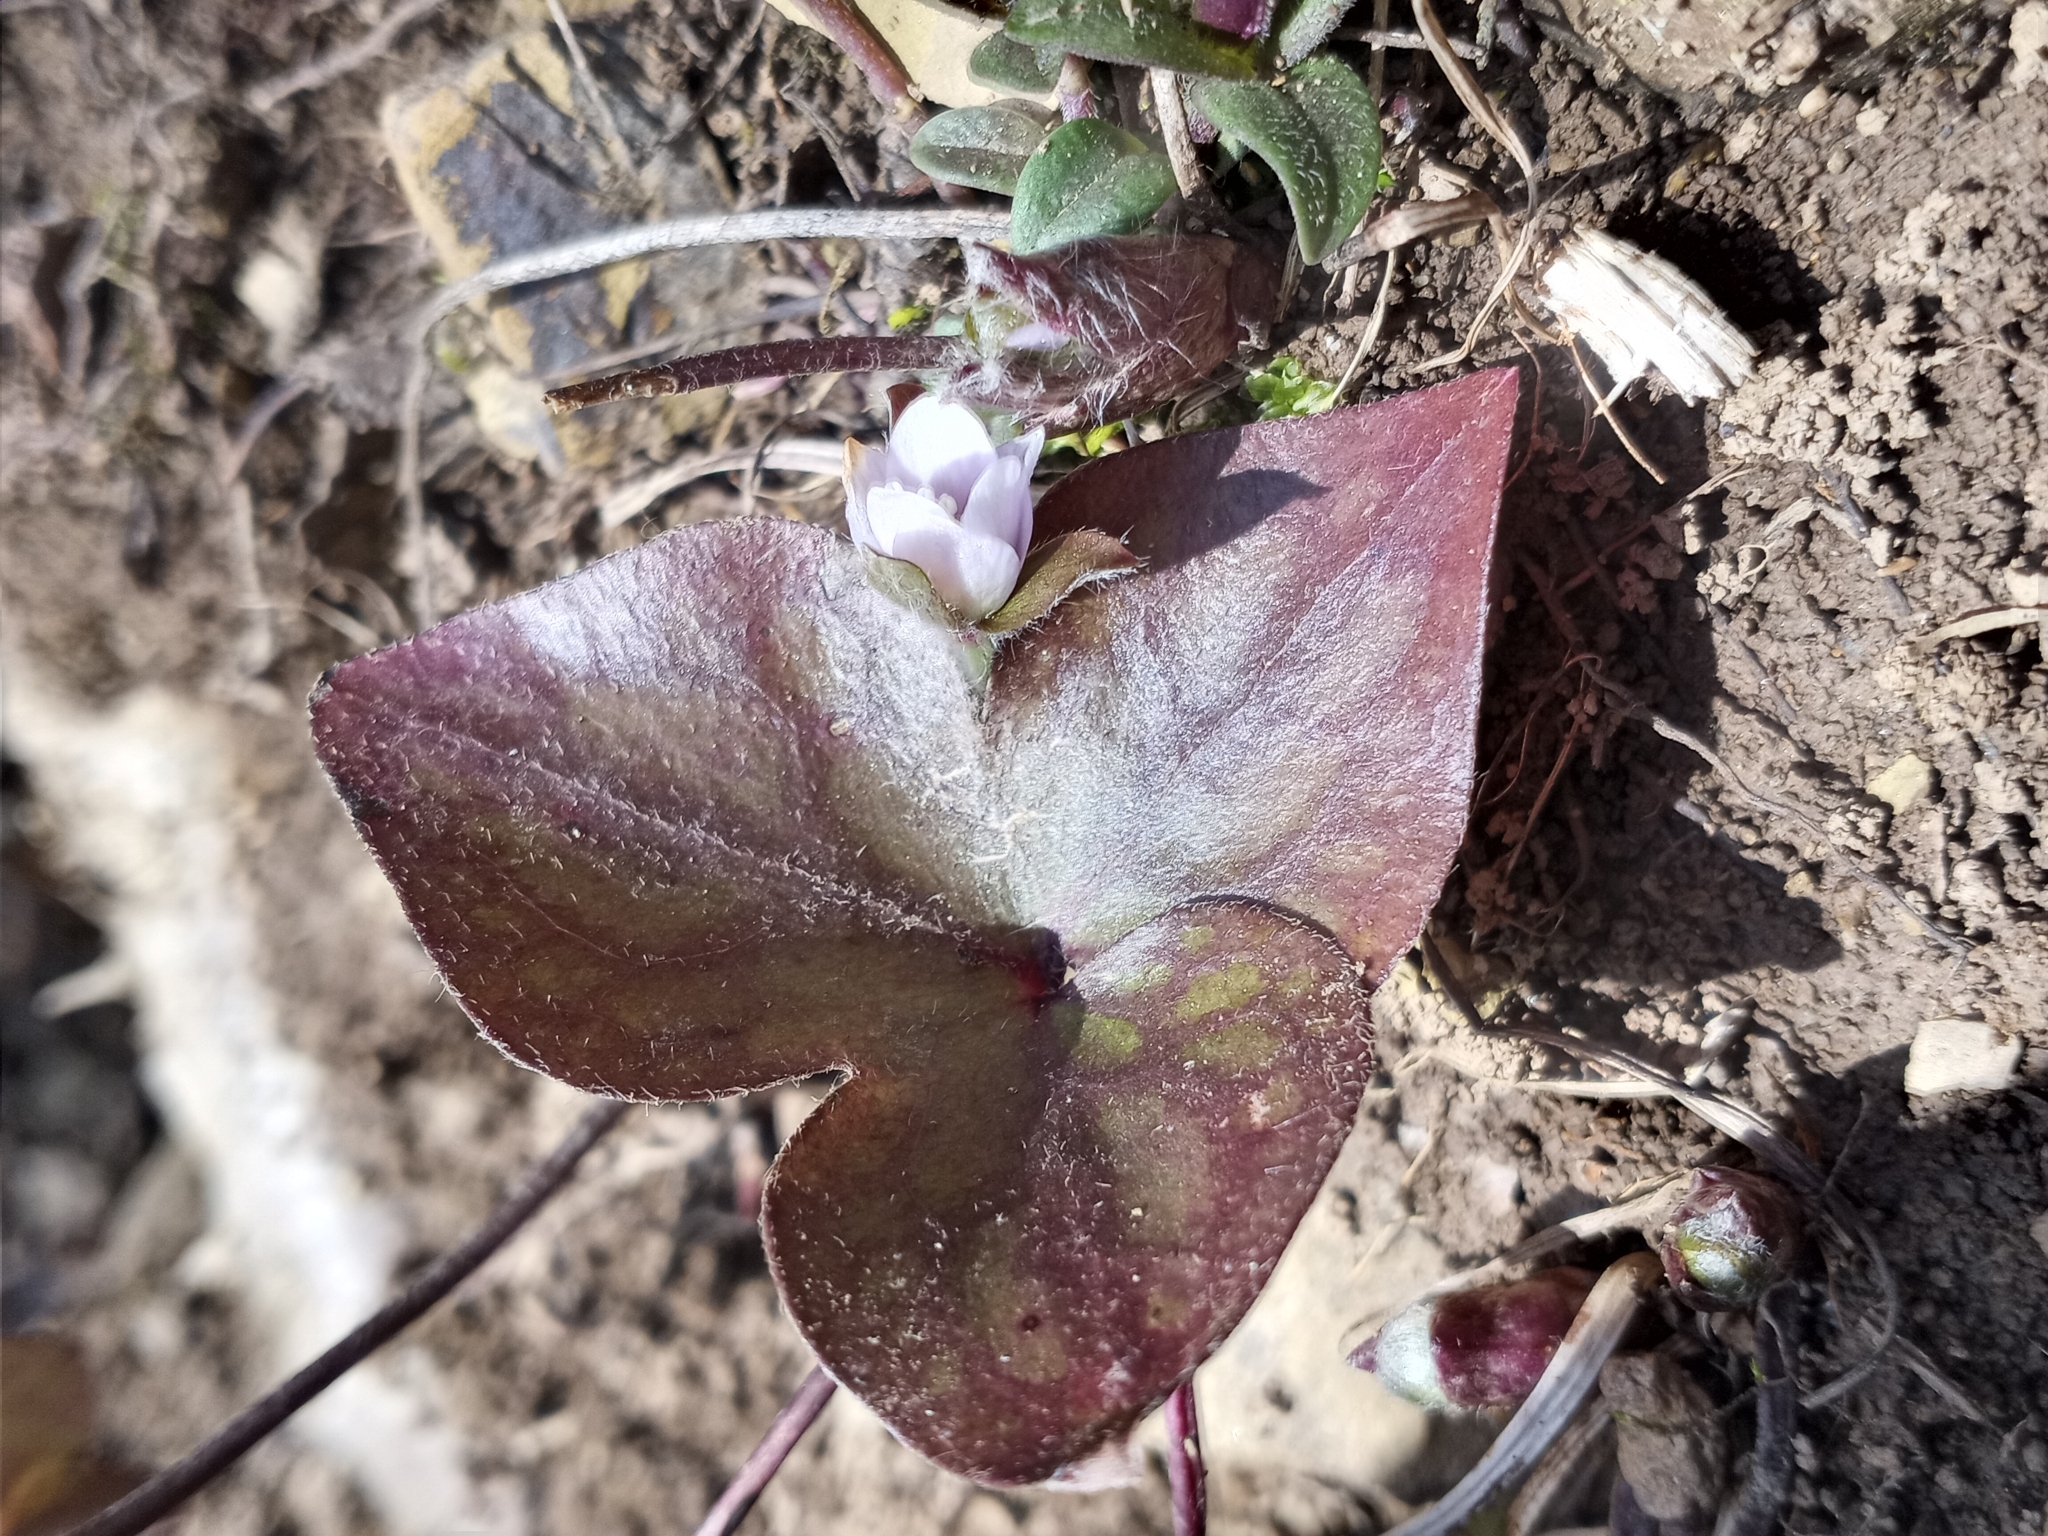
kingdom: Plantae
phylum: Tracheophyta
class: Magnoliopsida
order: Ranunculales
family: Ranunculaceae
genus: Hepatica
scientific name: Hepatica acutiloba
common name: Sharp-lobed hepatica
